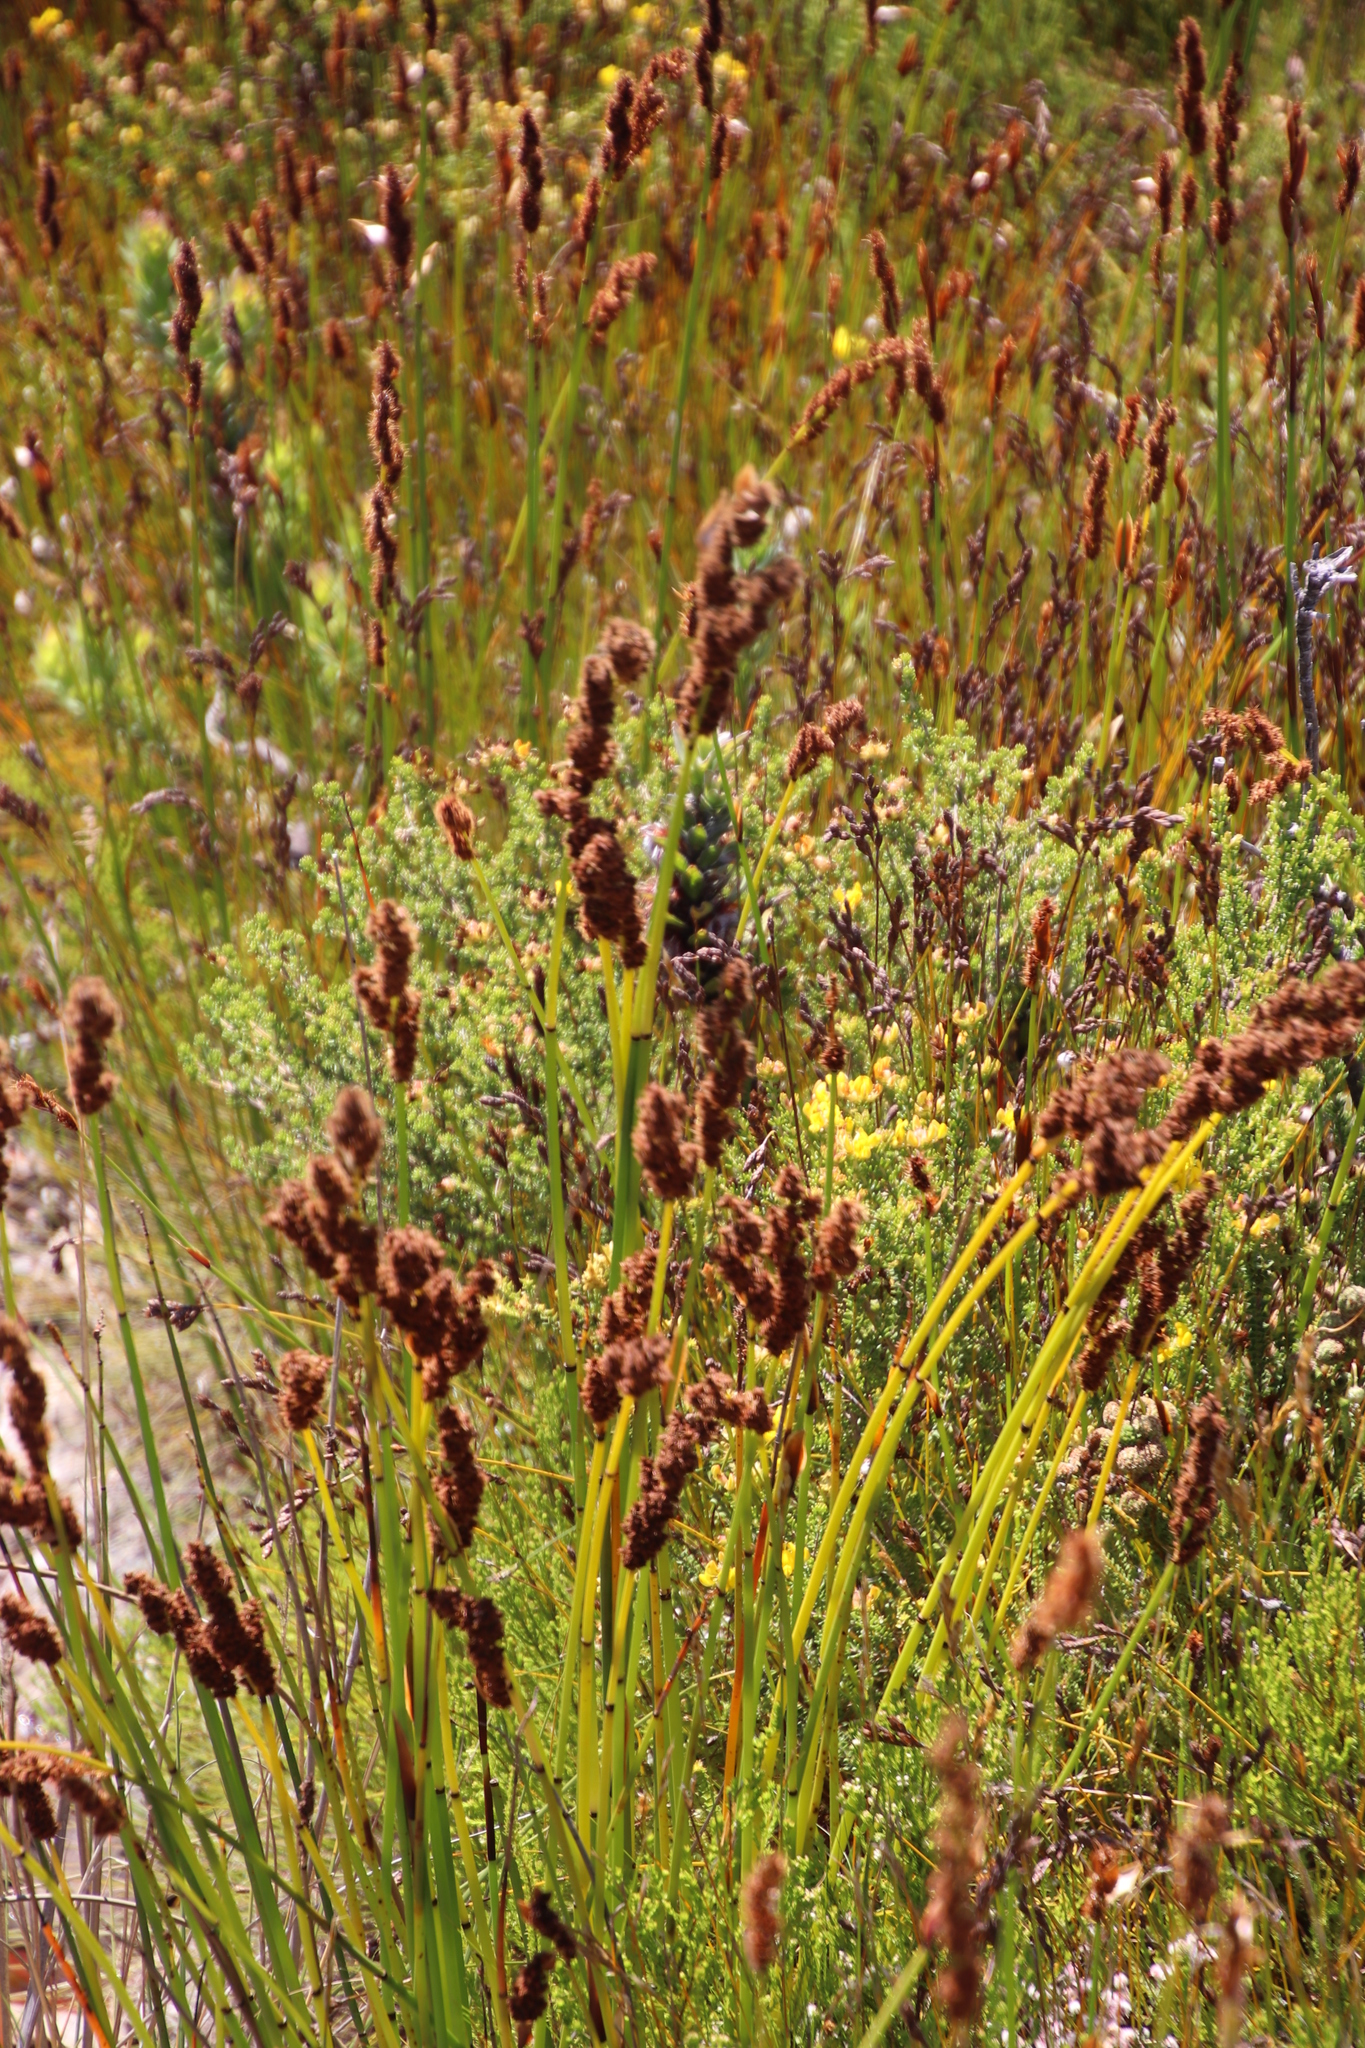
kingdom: Plantae
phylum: Tracheophyta
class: Liliopsida
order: Poales
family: Restionaceae
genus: Elegia
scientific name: Elegia cuspidata
